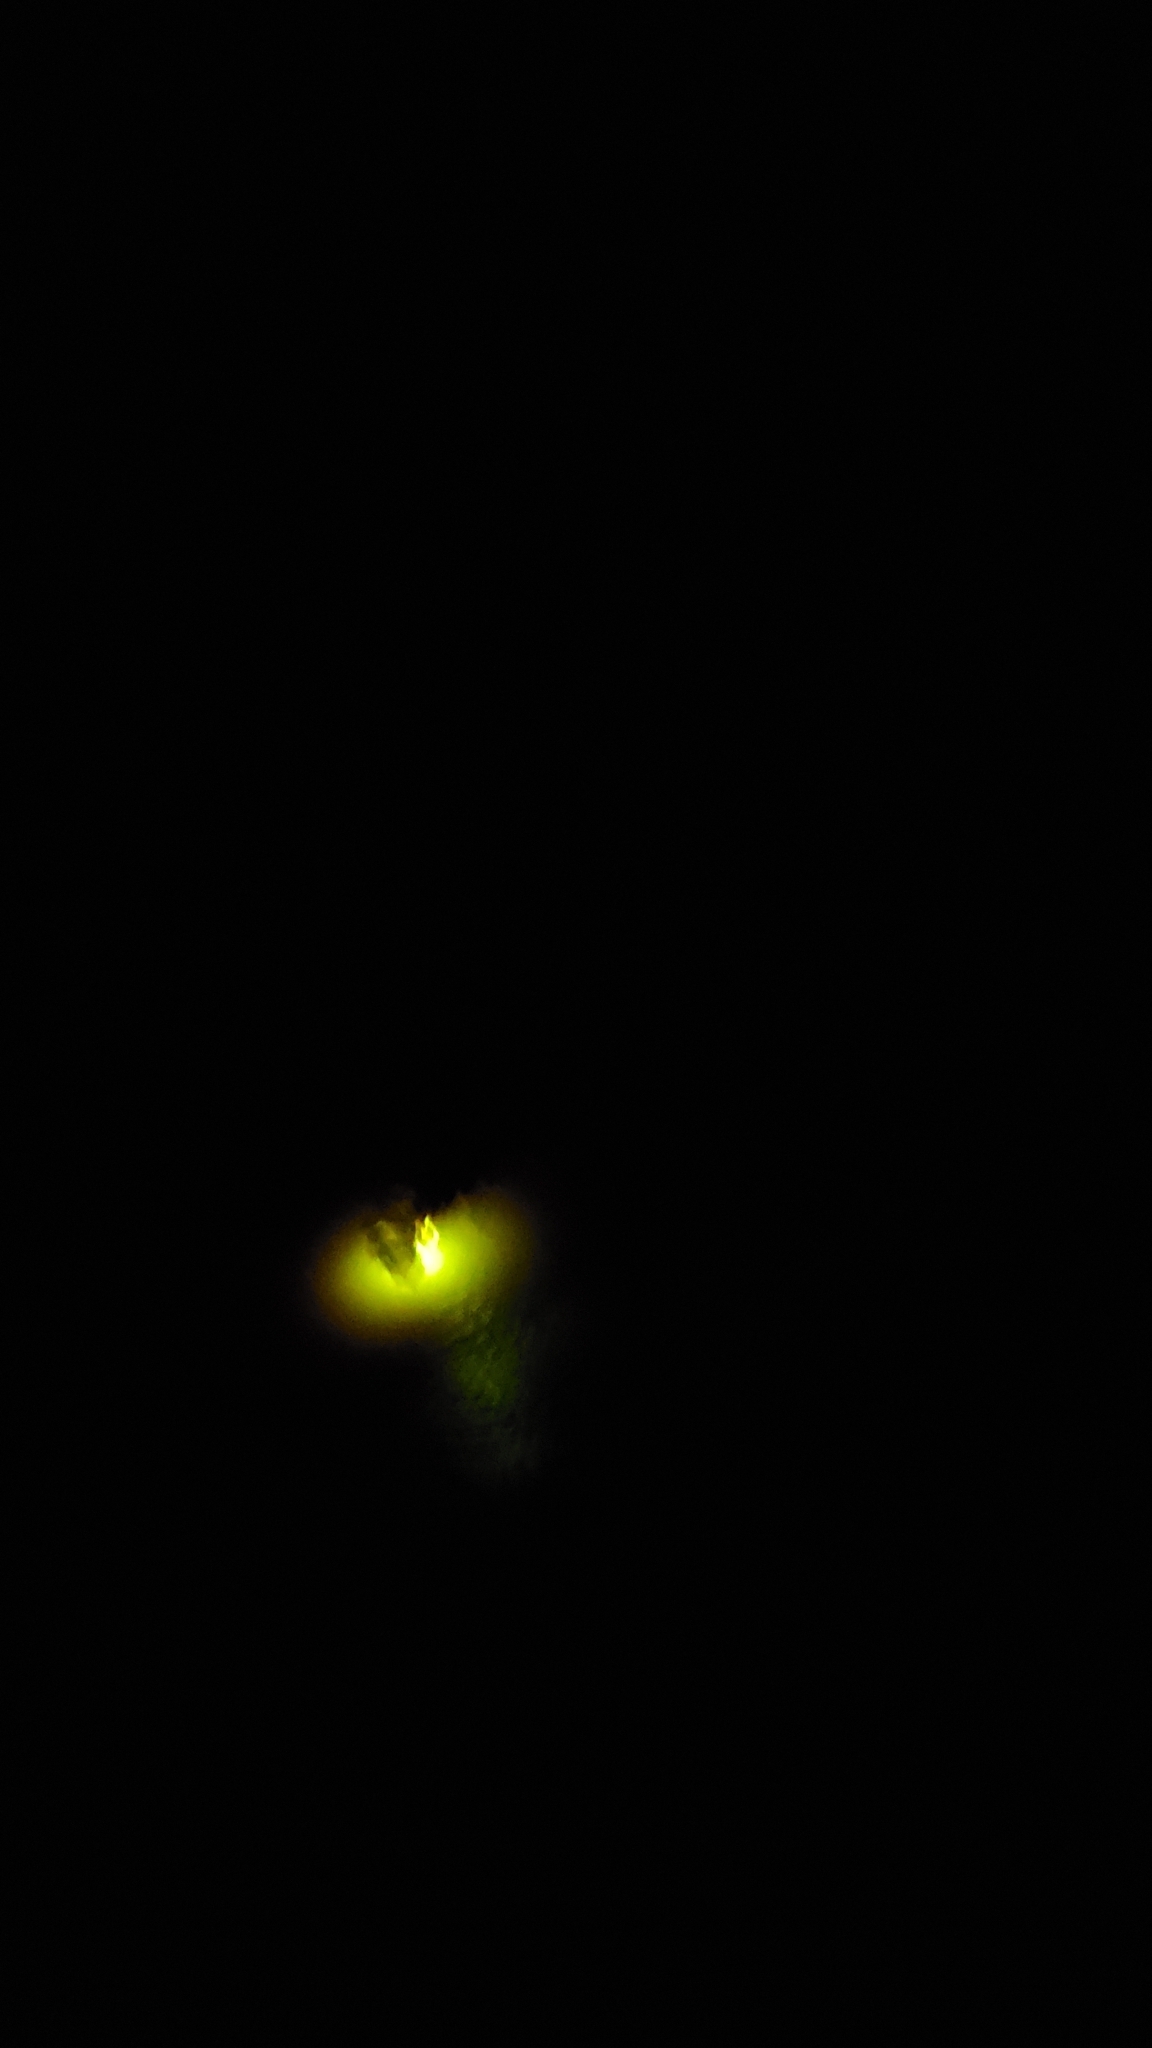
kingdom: Animalia
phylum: Arthropoda
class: Insecta
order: Coleoptera
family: Lampyridae
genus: Lampyris
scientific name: Lampyris noctiluca
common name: Glow-worm
